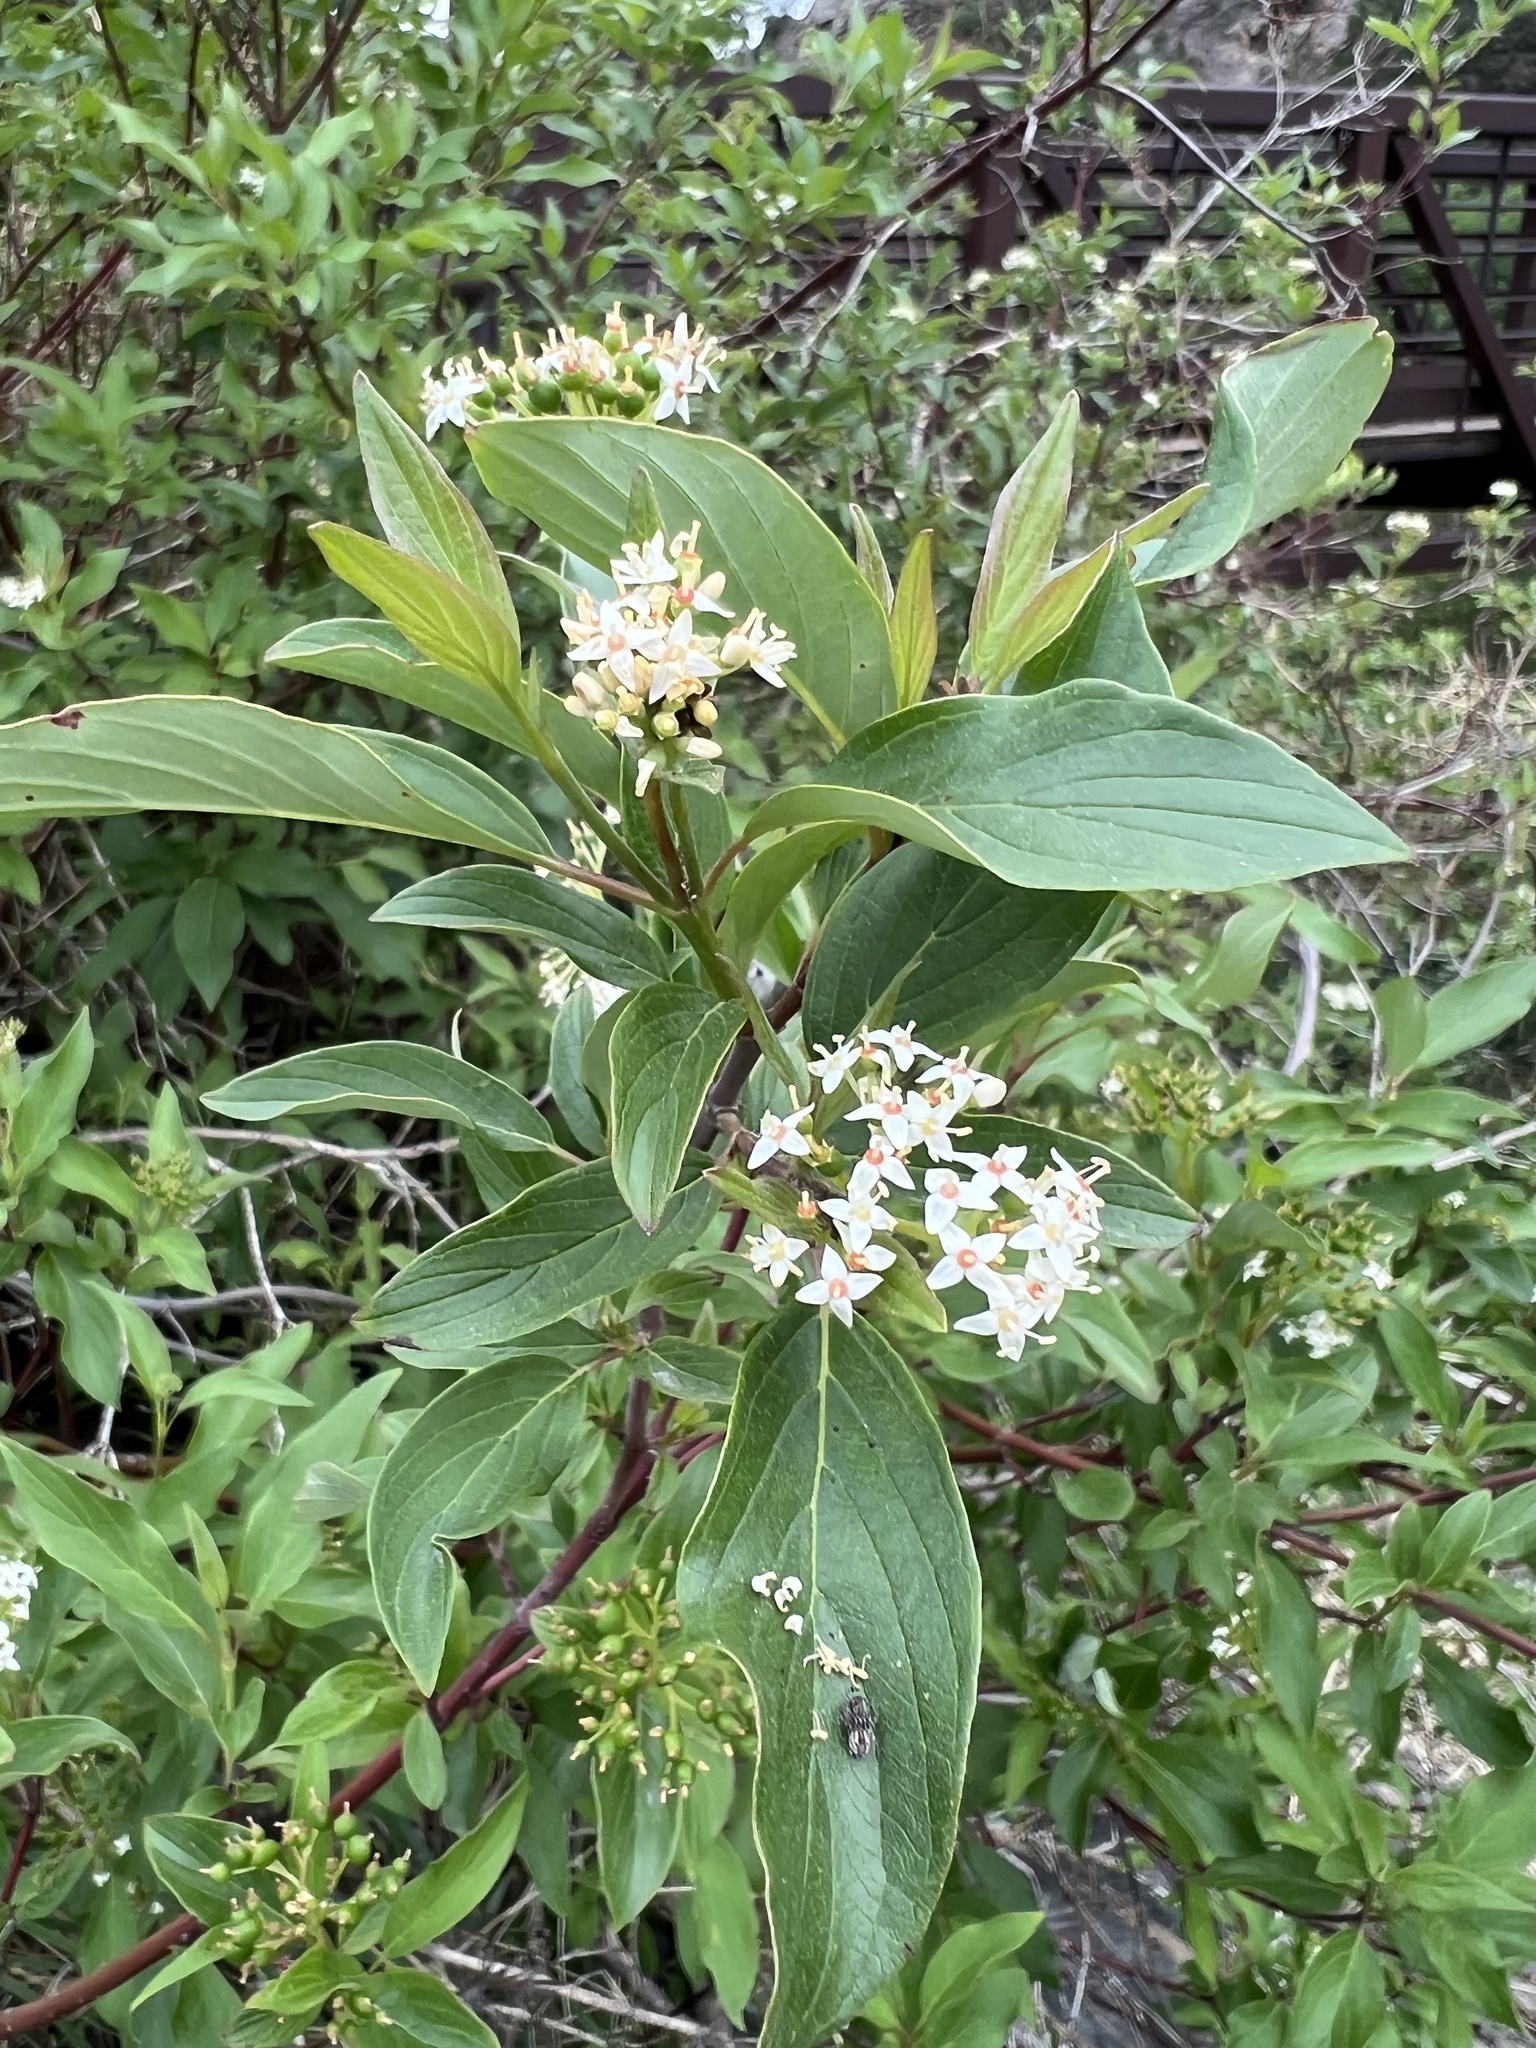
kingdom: Plantae
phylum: Tracheophyta
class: Magnoliopsida
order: Cornales
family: Cornaceae
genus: Cornus
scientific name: Cornus sericea
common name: Red-osier dogwood
